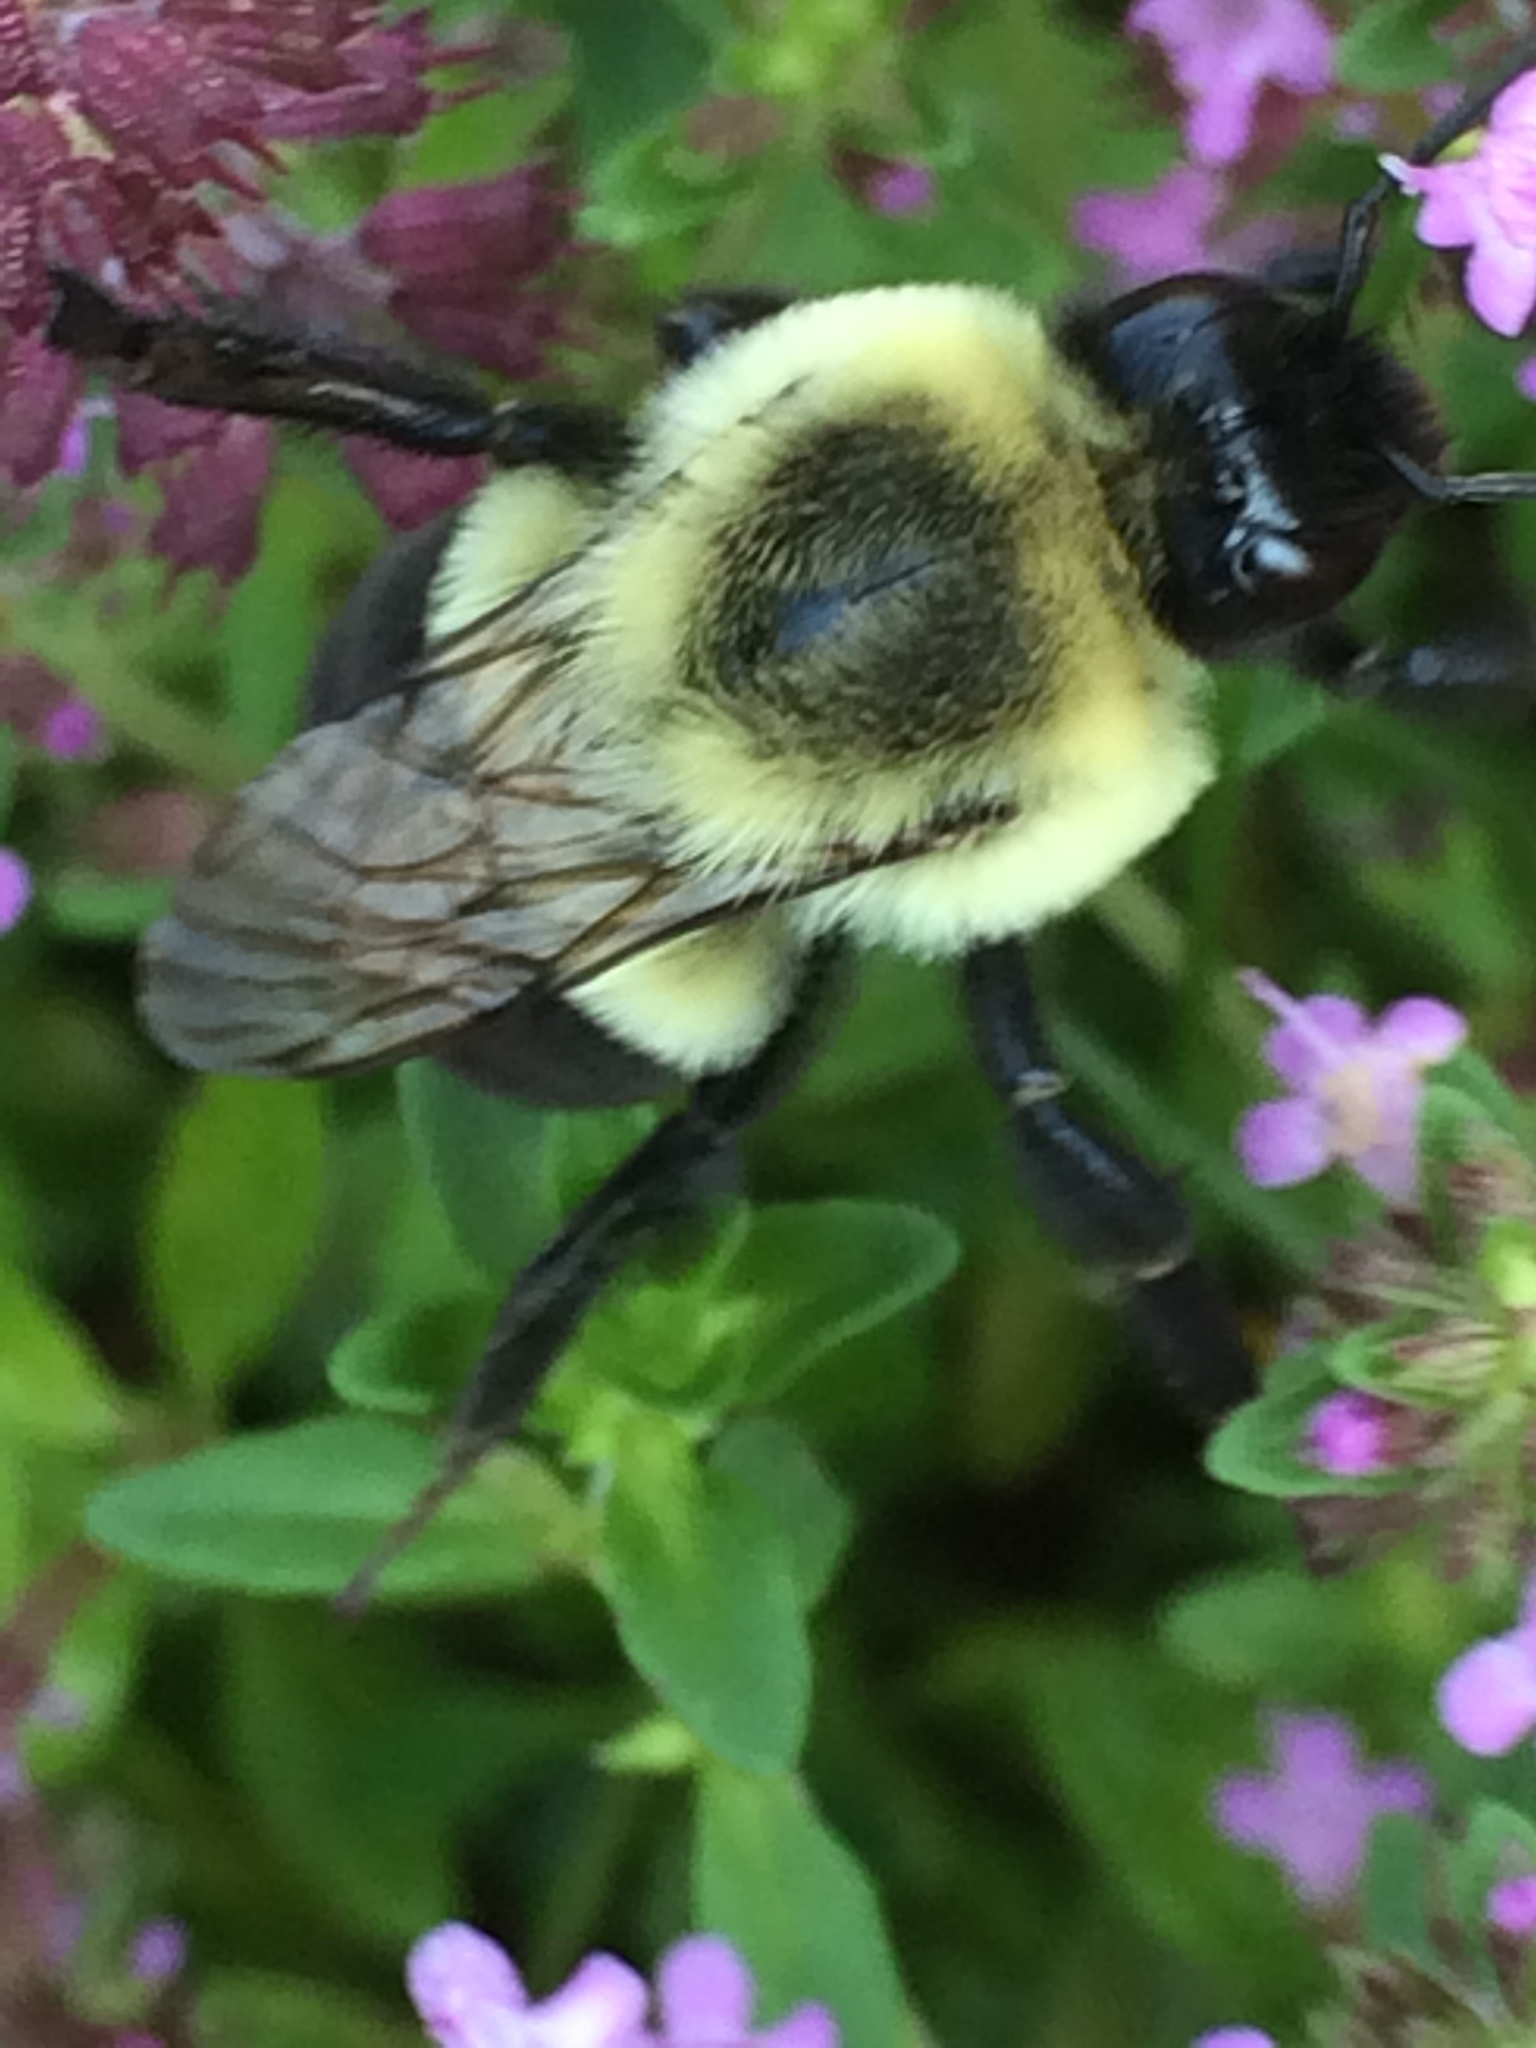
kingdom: Animalia
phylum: Arthropoda
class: Insecta
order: Hymenoptera
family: Apidae
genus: Bombus
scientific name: Bombus impatiens
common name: Common eastern bumble bee
